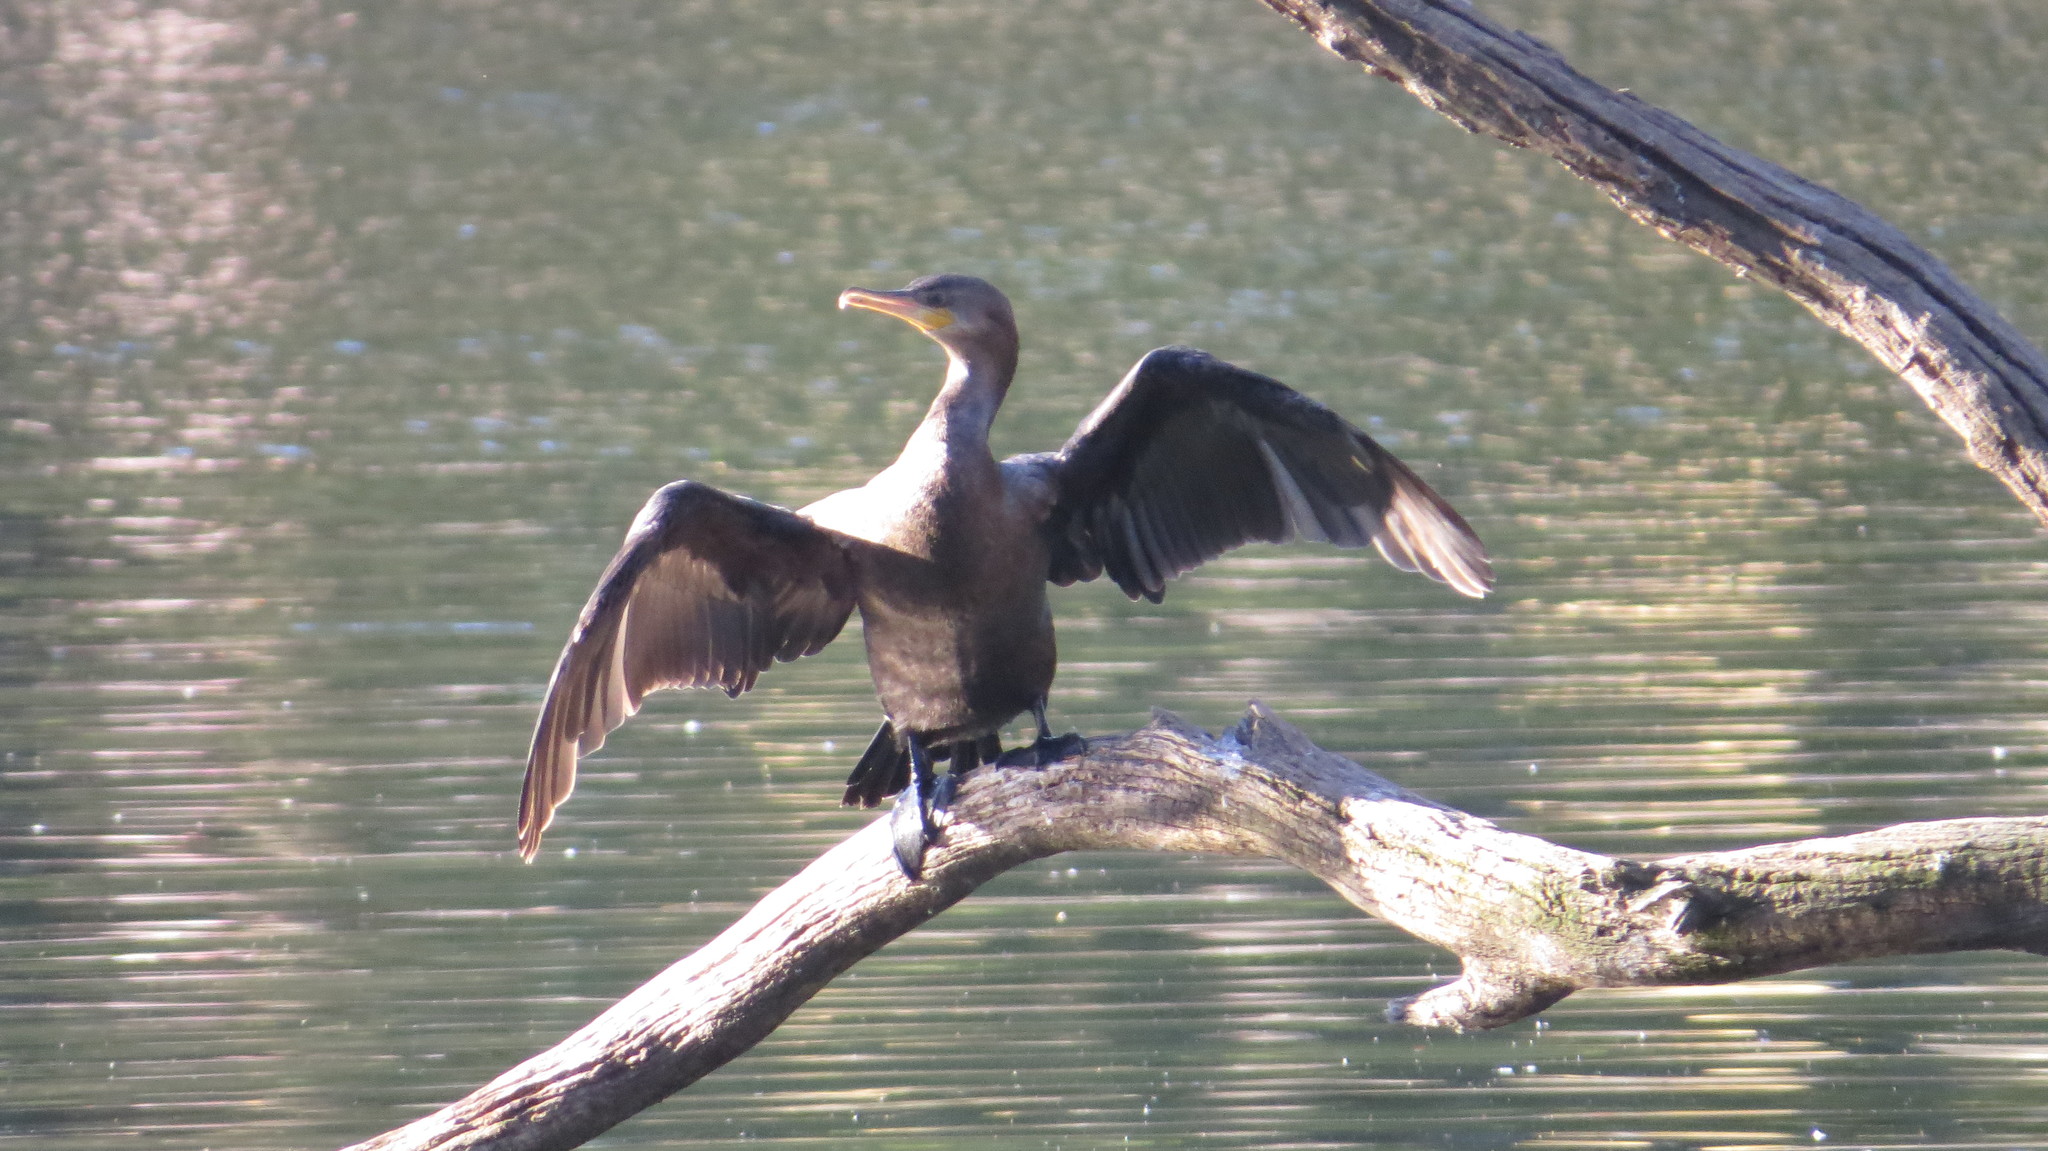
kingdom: Animalia
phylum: Chordata
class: Aves
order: Suliformes
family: Phalacrocoracidae
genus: Phalacrocorax
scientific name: Phalacrocorax brasilianus
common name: Neotropic cormorant
